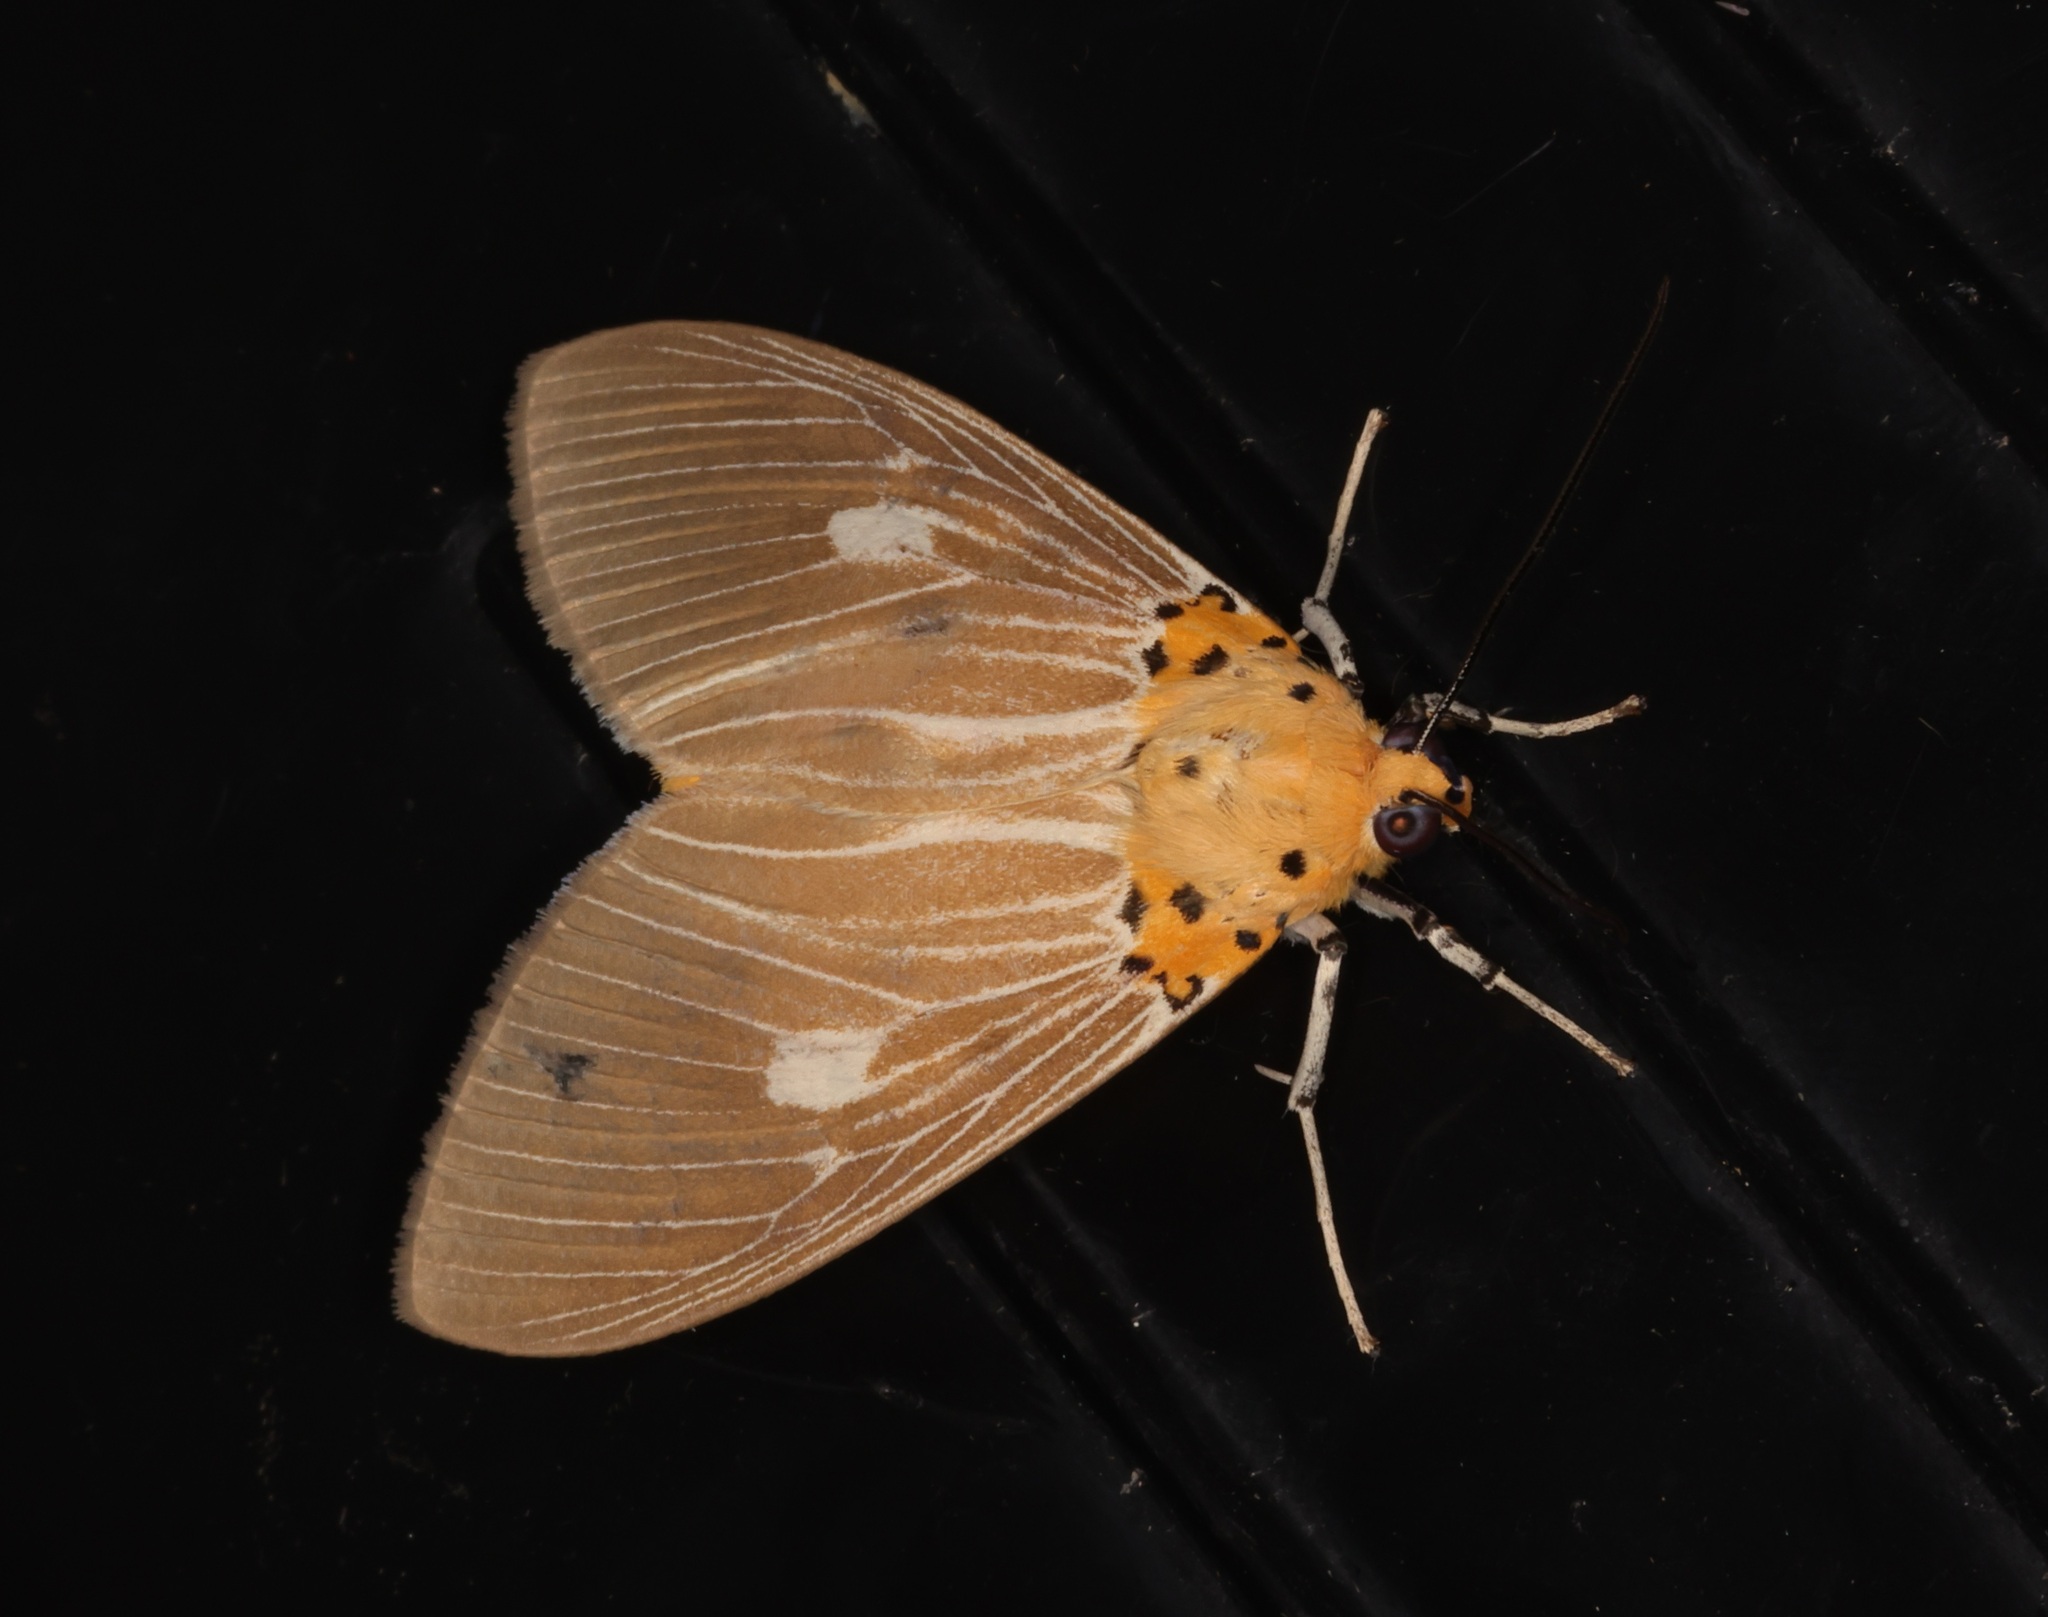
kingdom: Animalia
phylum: Arthropoda
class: Insecta
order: Lepidoptera
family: Erebidae
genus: Asota
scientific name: Asota caricae
